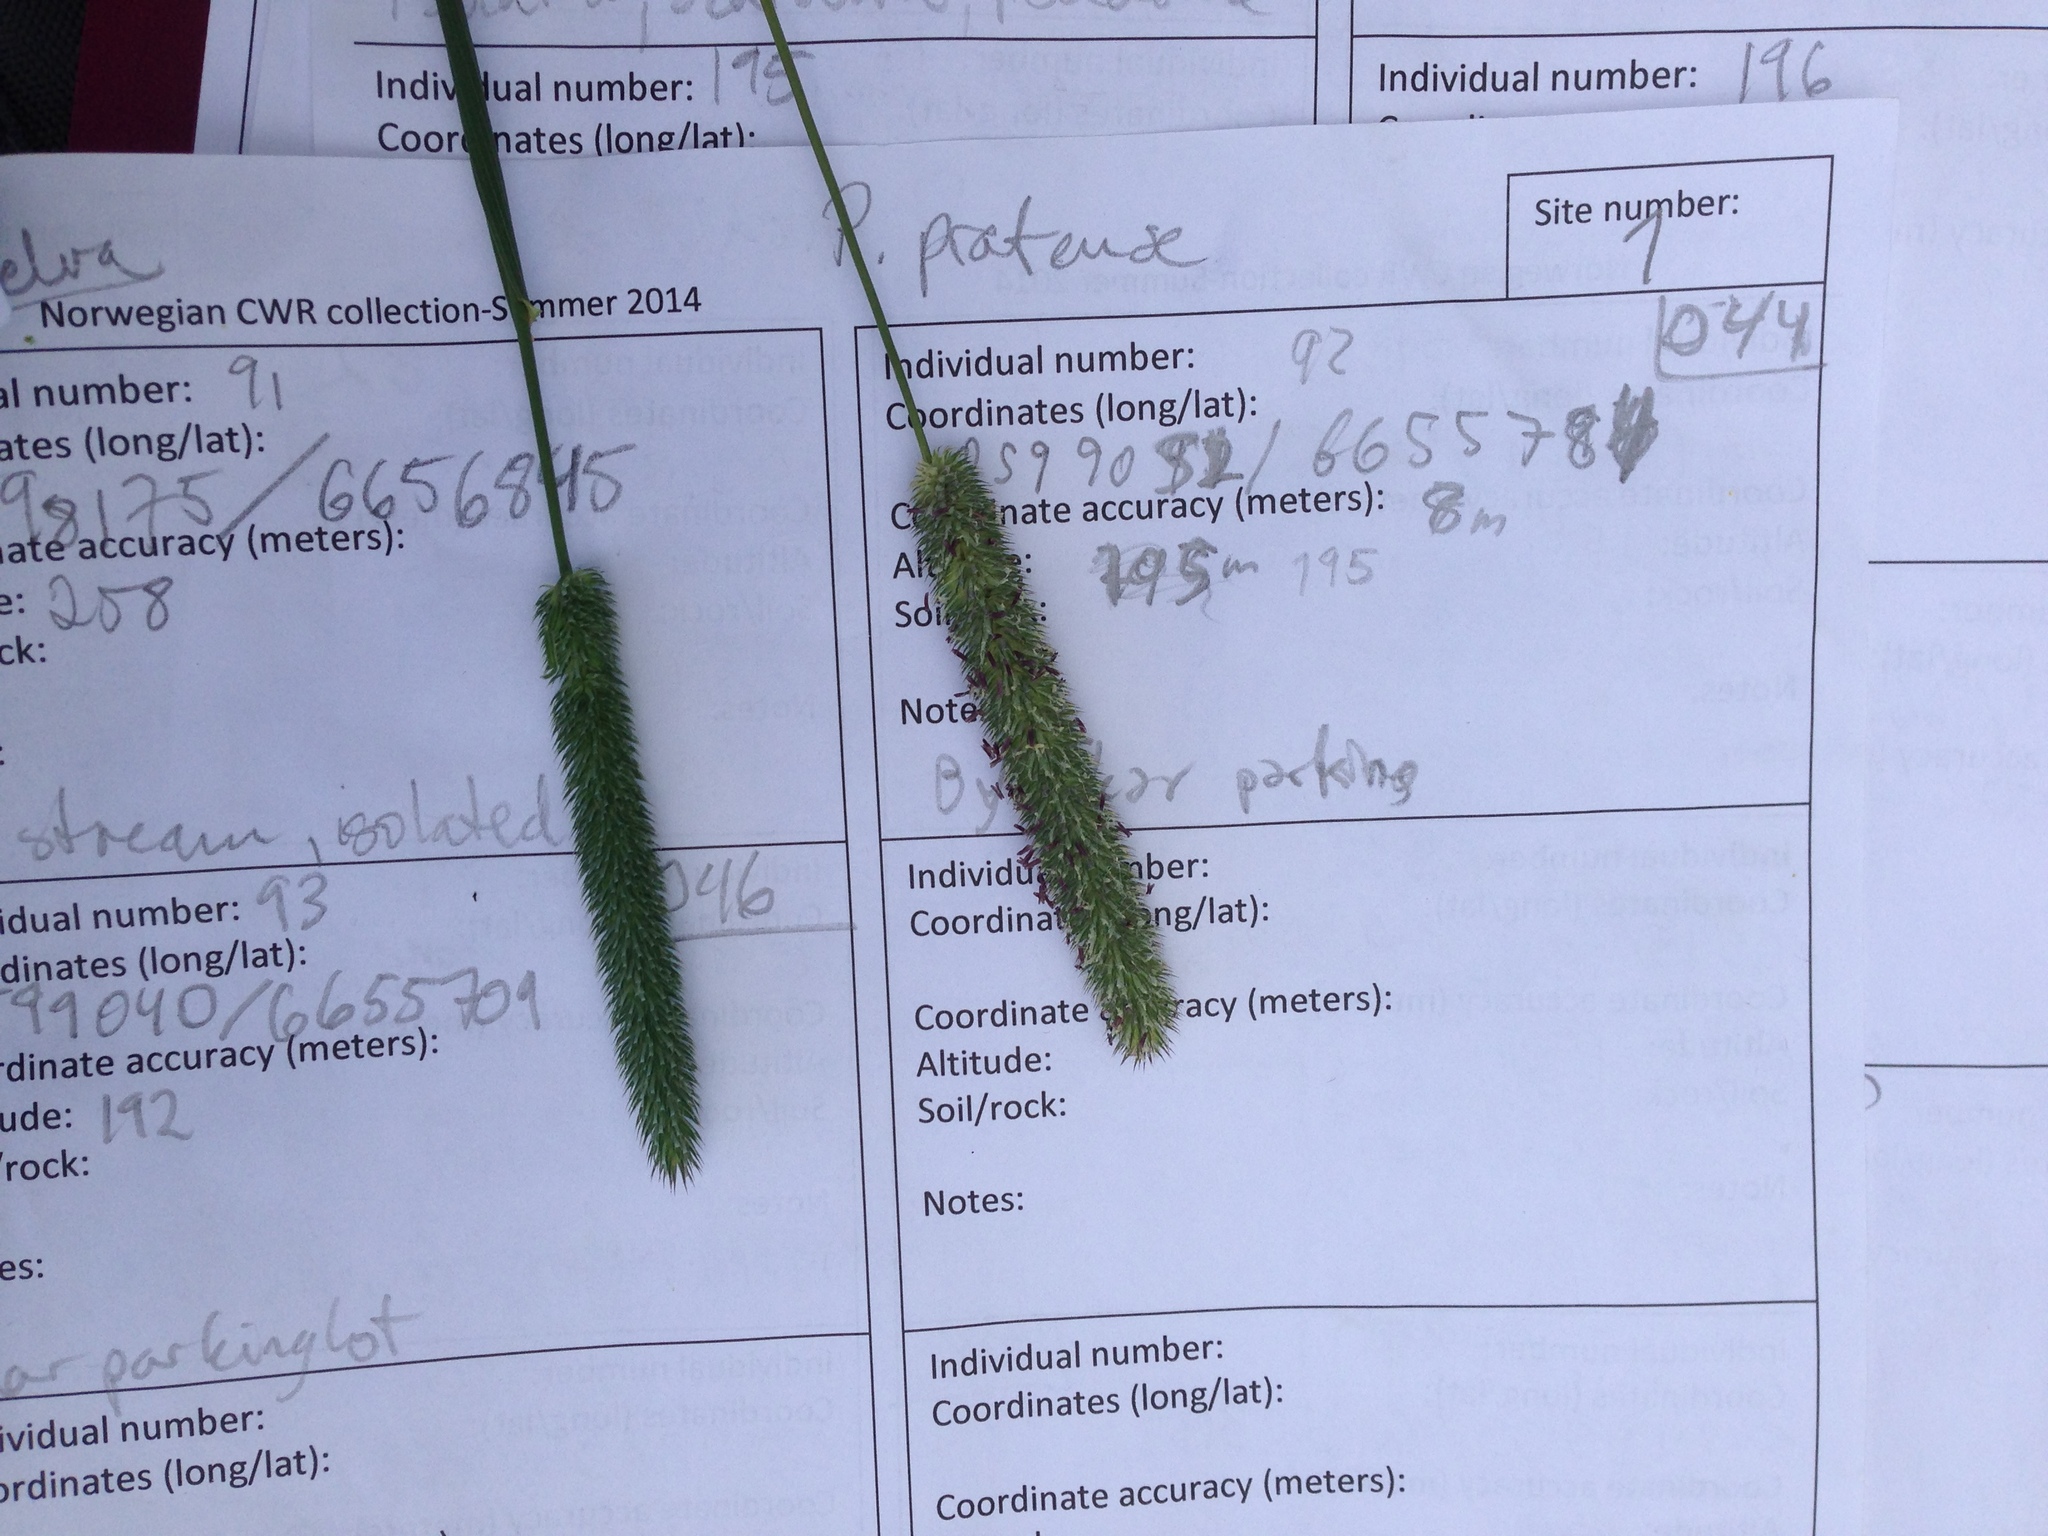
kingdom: Plantae
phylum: Tracheophyta
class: Liliopsida
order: Poales
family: Poaceae
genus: Phleum
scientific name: Phleum pratense
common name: Timothy grass
